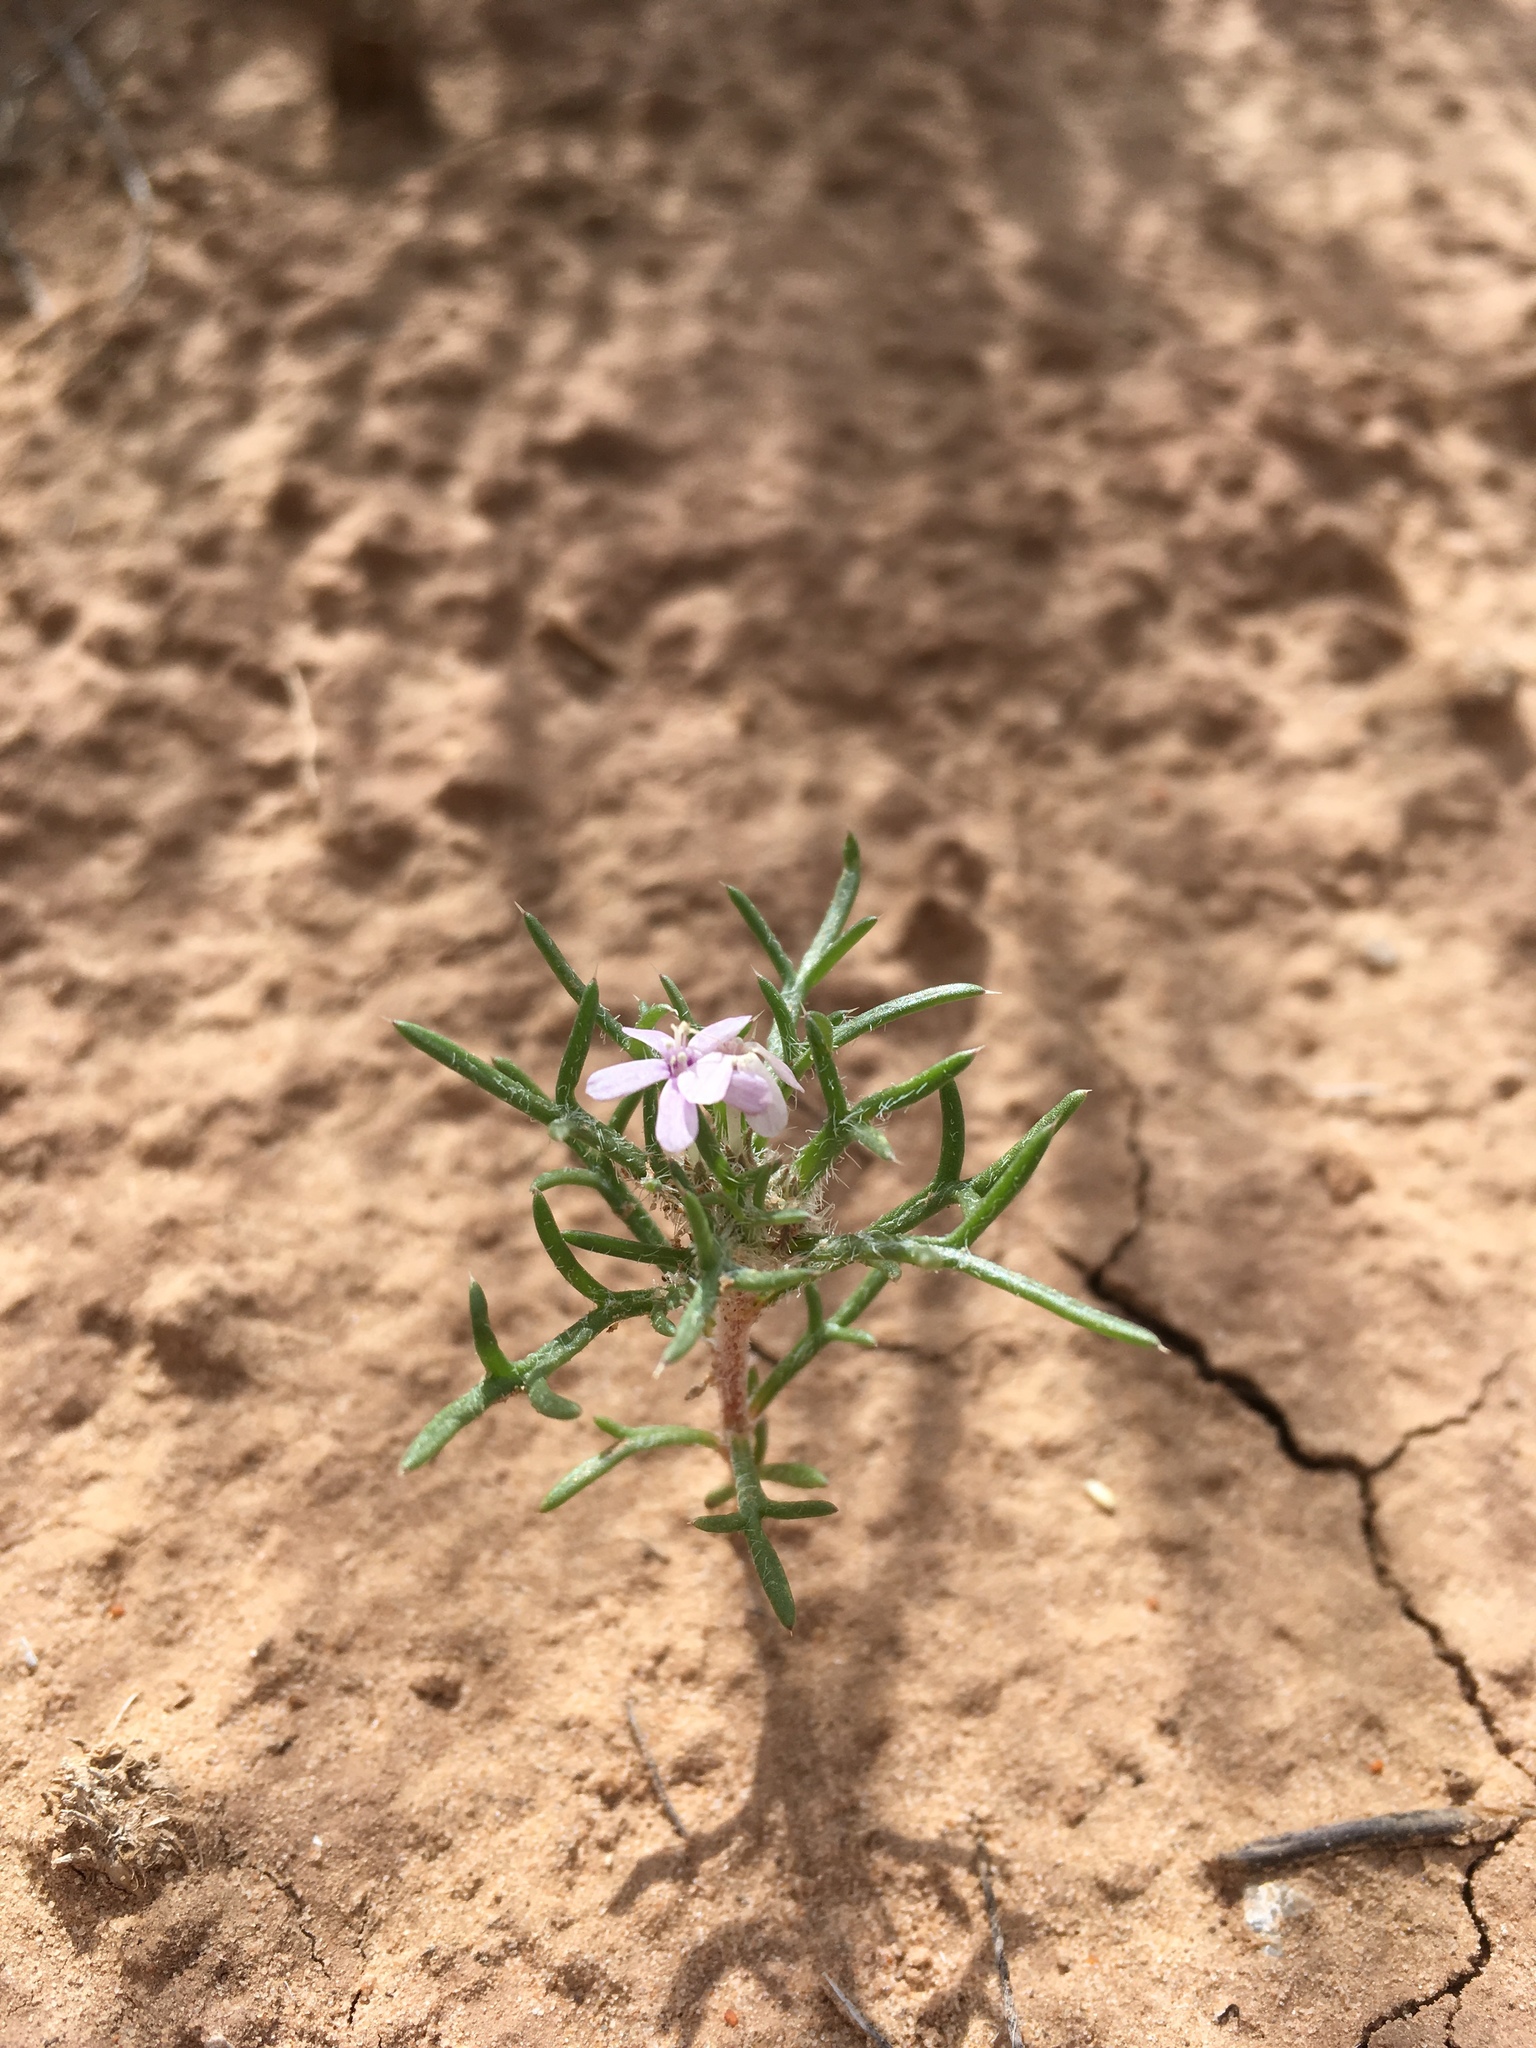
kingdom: Plantae
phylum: Tracheophyta
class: Magnoliopsida
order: Ericales
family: Polemoniaceae
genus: Ipomopsis
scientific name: Ipomopsis pumila
